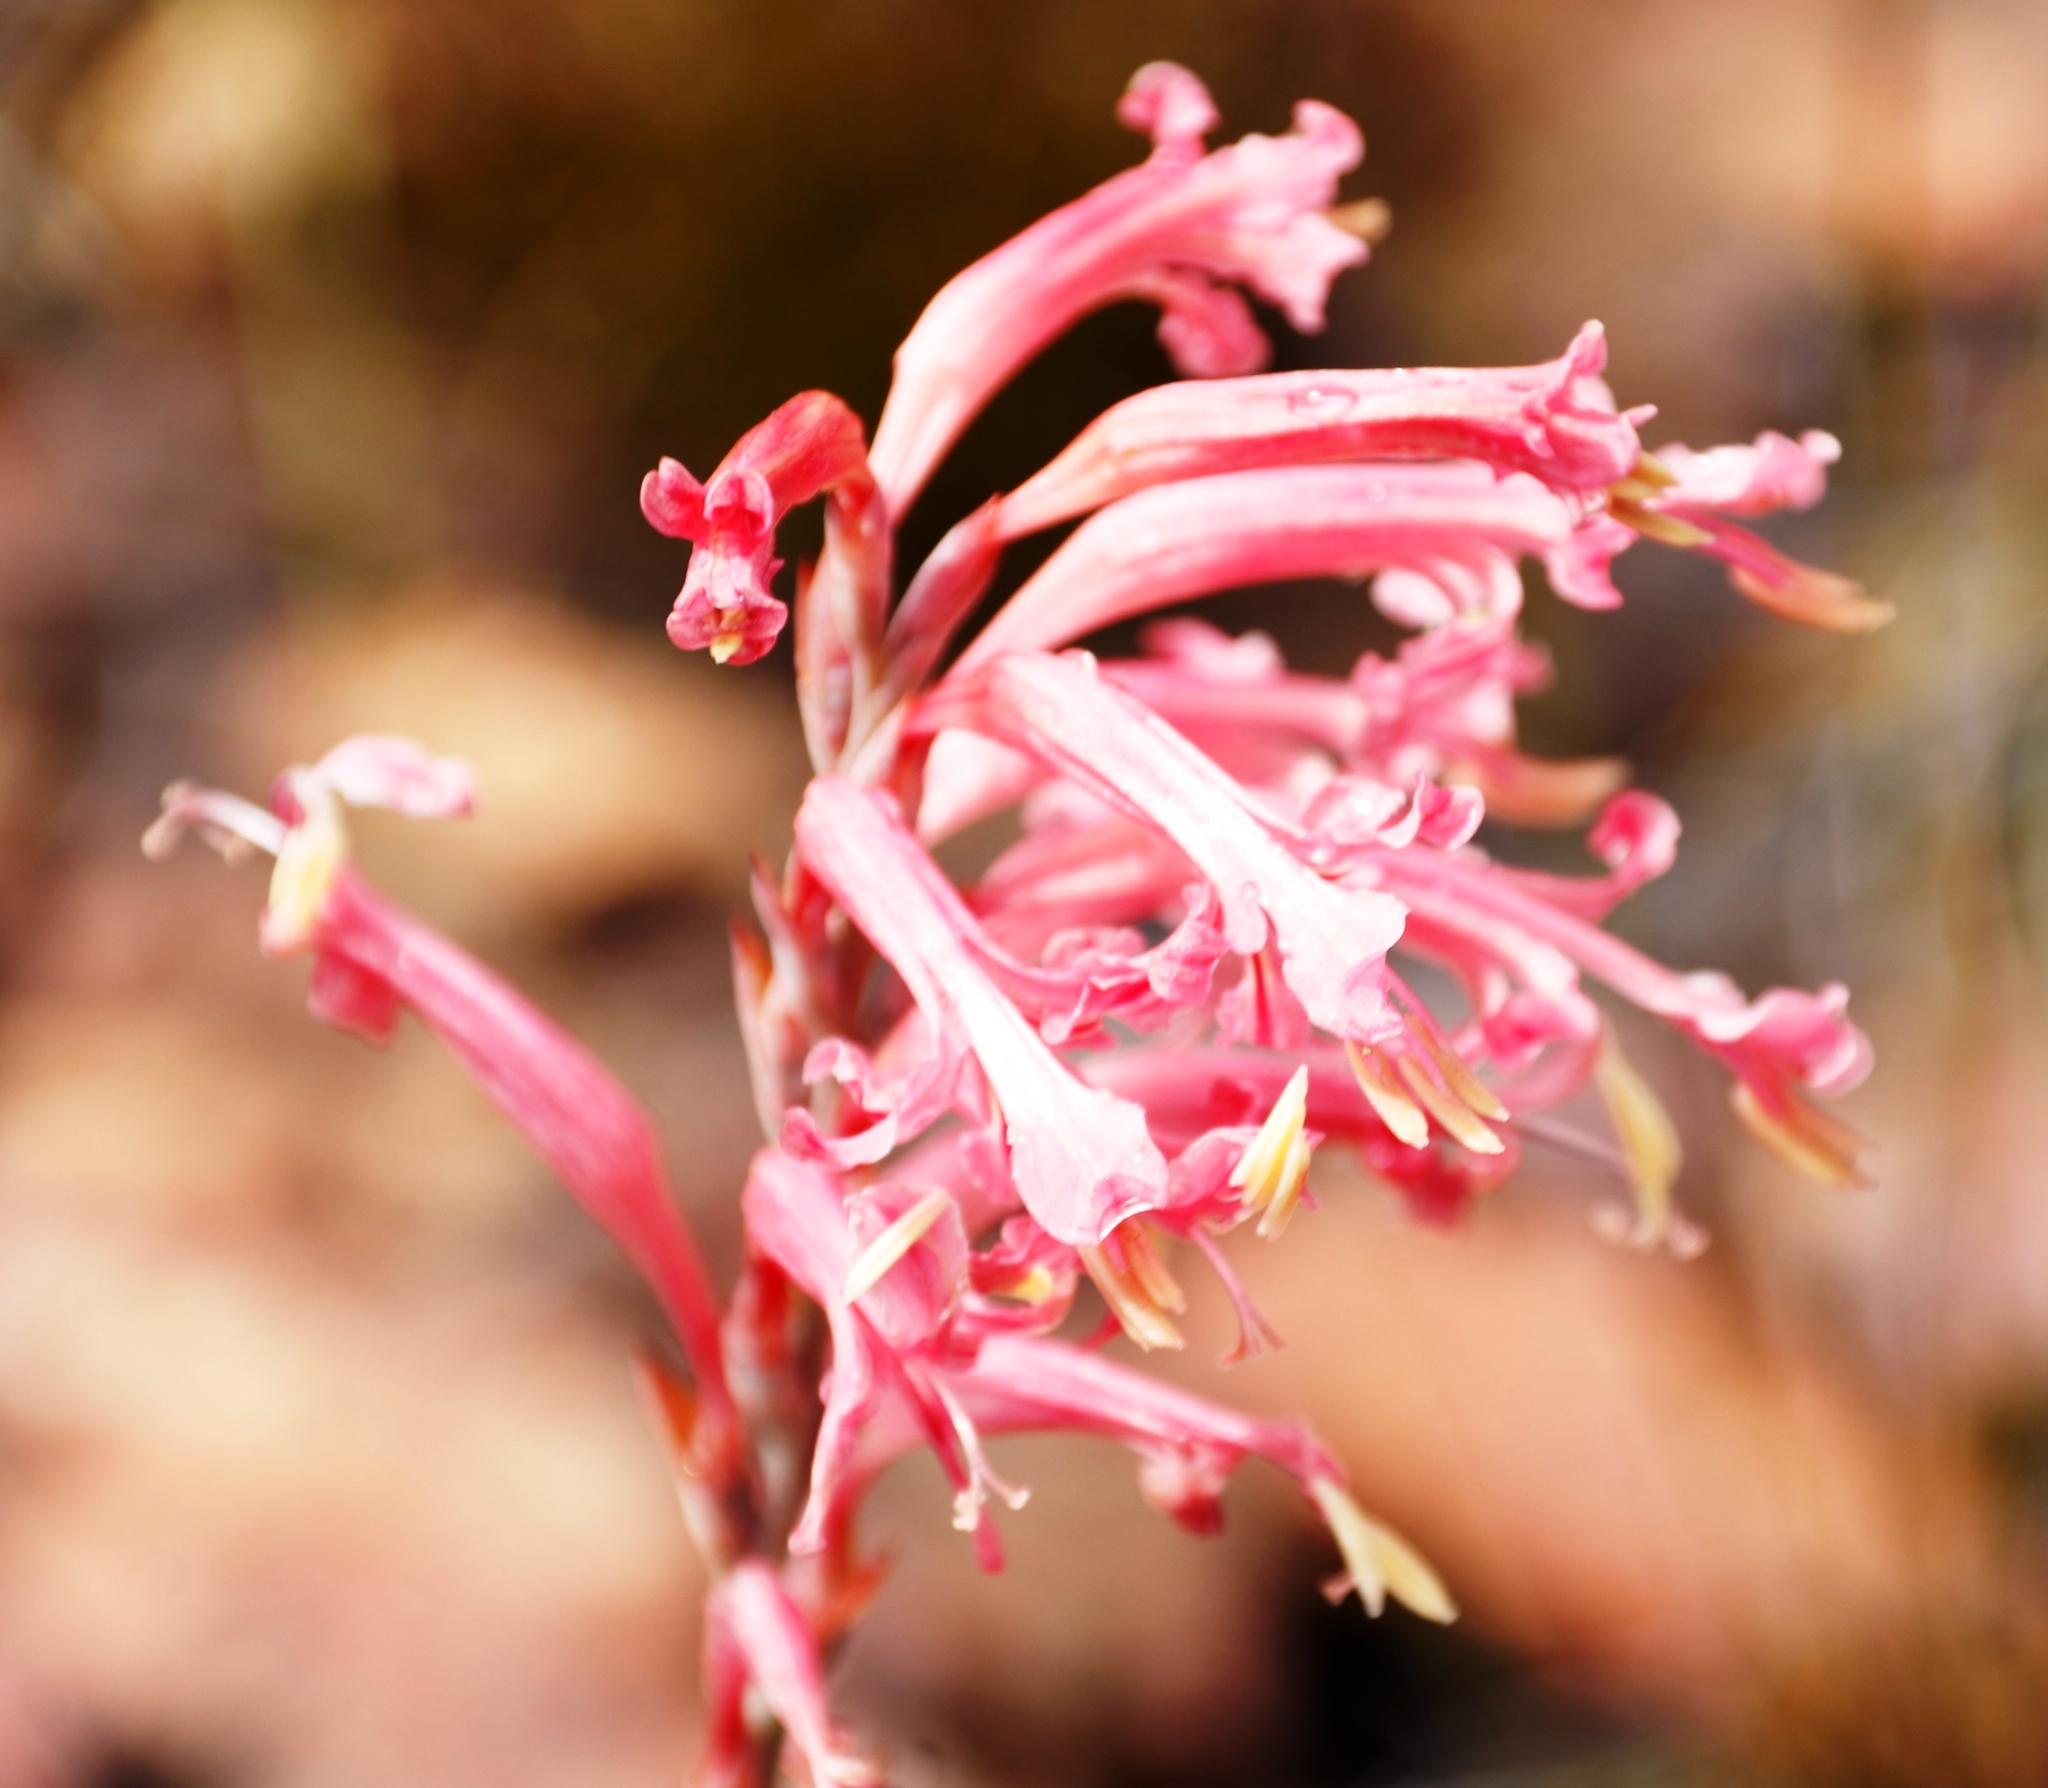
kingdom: Plantae
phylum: Tracheophyta
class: Liliopsida
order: Asparagales
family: Iridaceae
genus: Tritoniopsis
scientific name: Tritoniopsis antholyza
